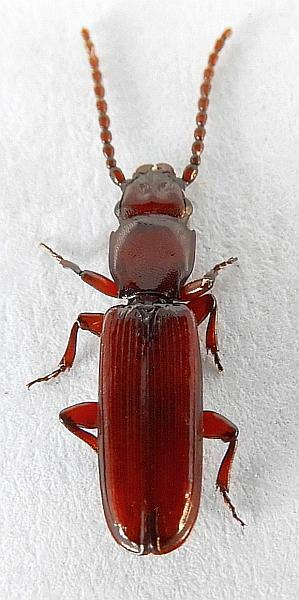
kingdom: Animalia
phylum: Arthropoda
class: Insecta
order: Coleoptera
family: Passandridae
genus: Catogenus
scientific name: Catogenus rufus
